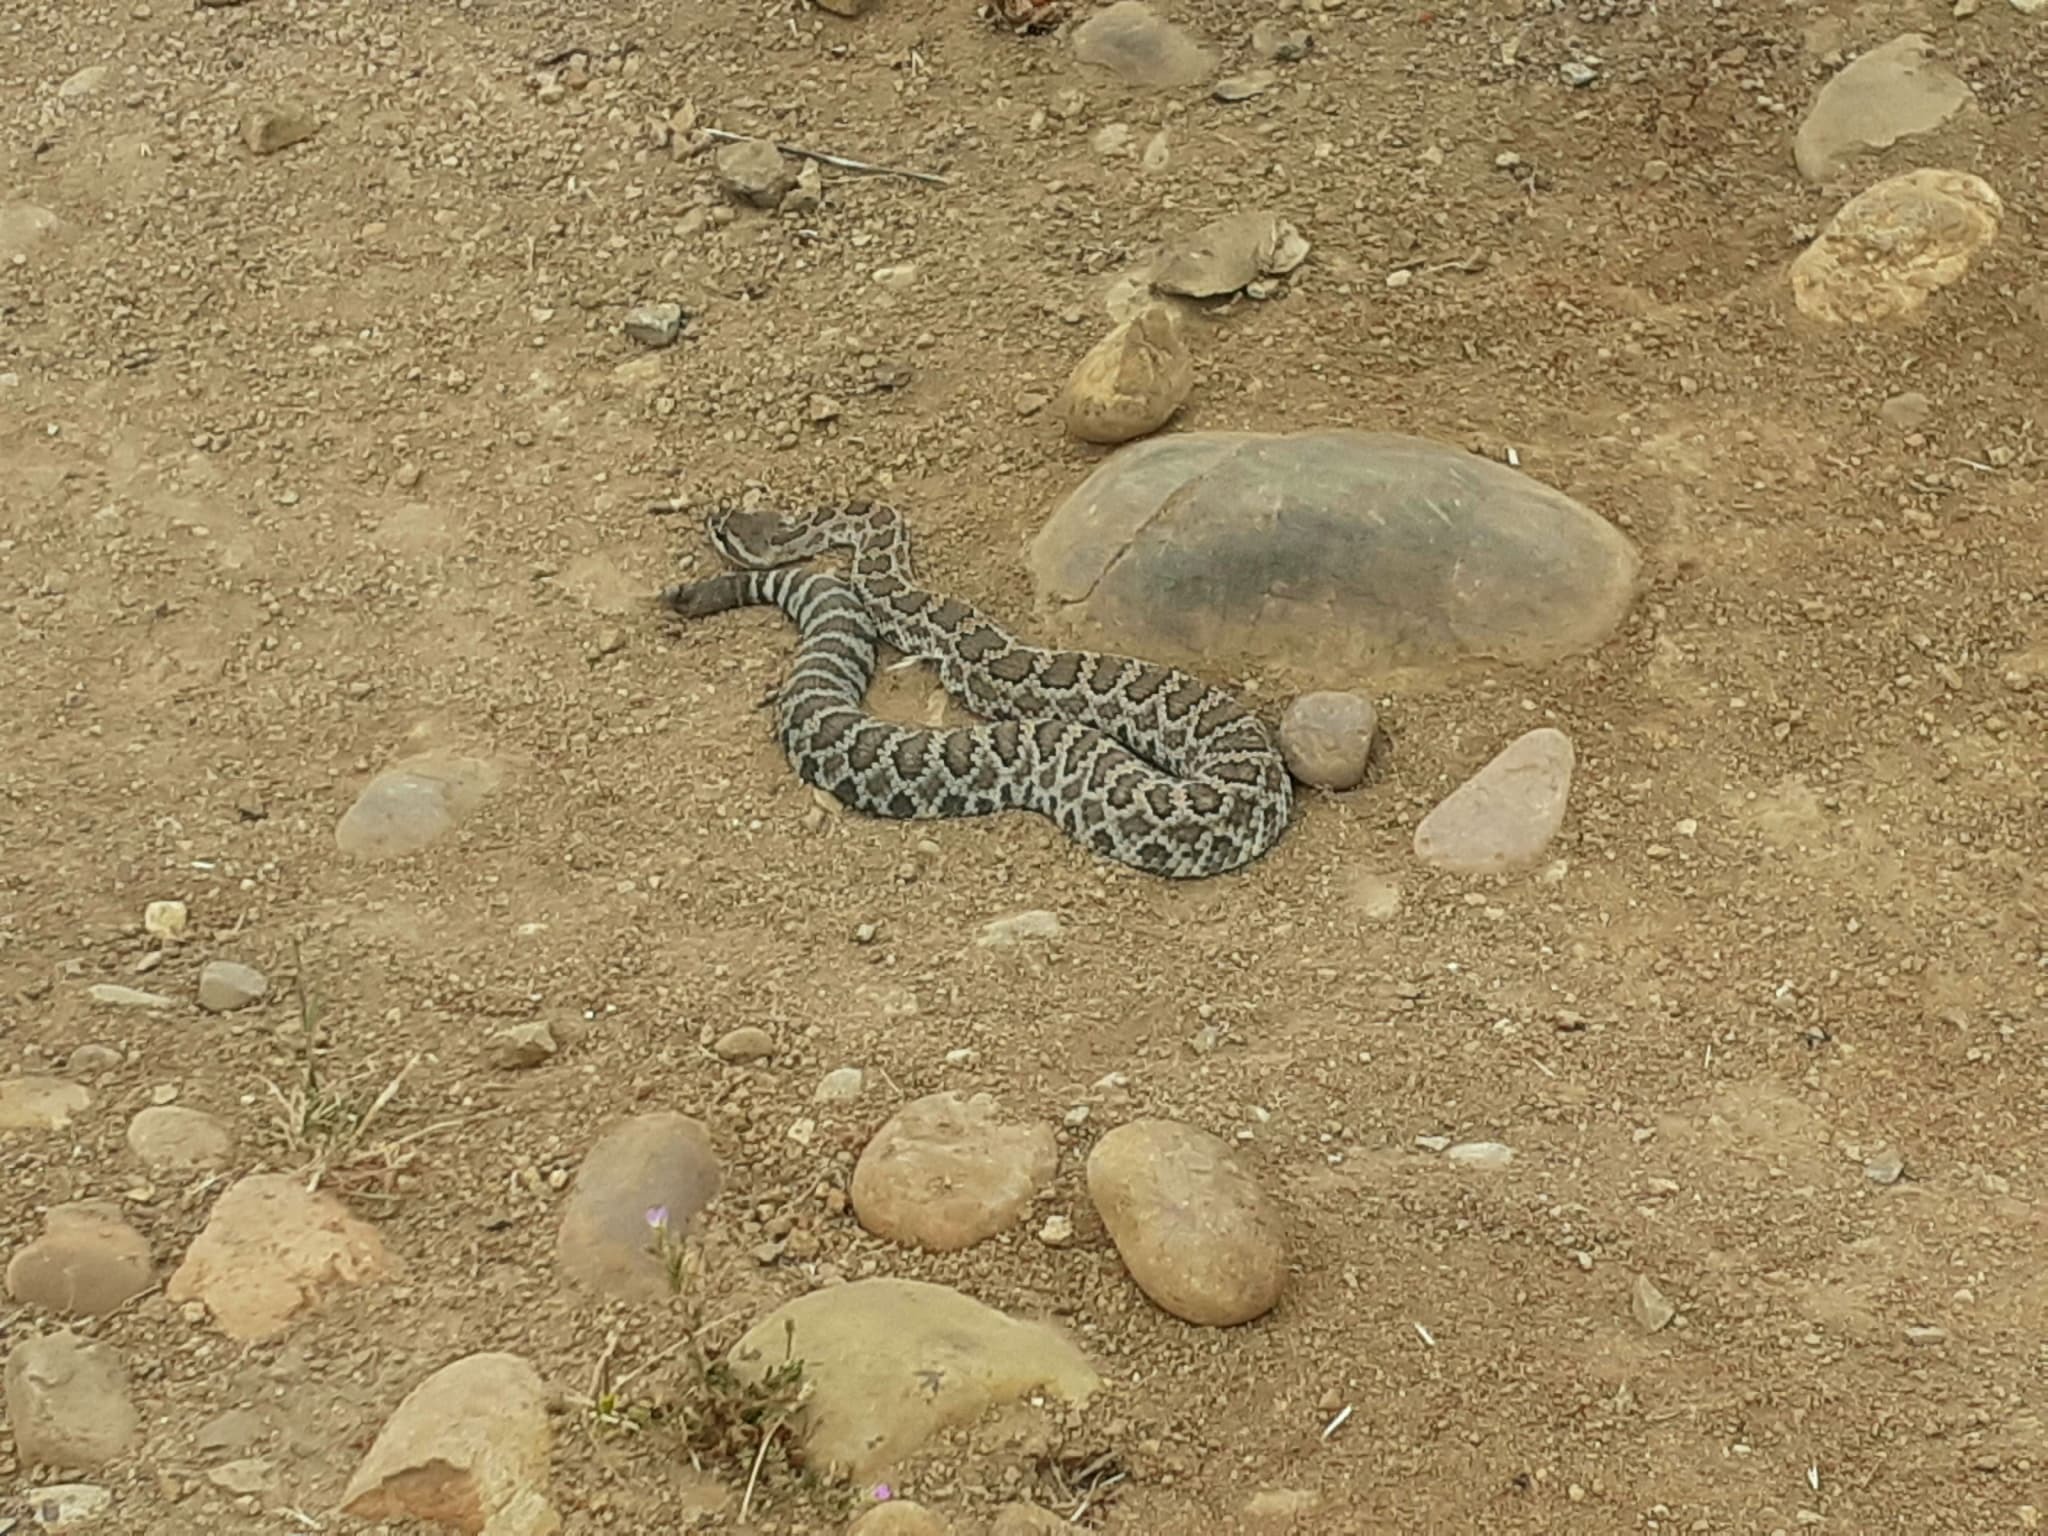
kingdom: Animalia
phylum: Chordata
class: Squamata
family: Viperidae
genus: Crotalus
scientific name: Crotalus oreganus
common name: Abyssus
